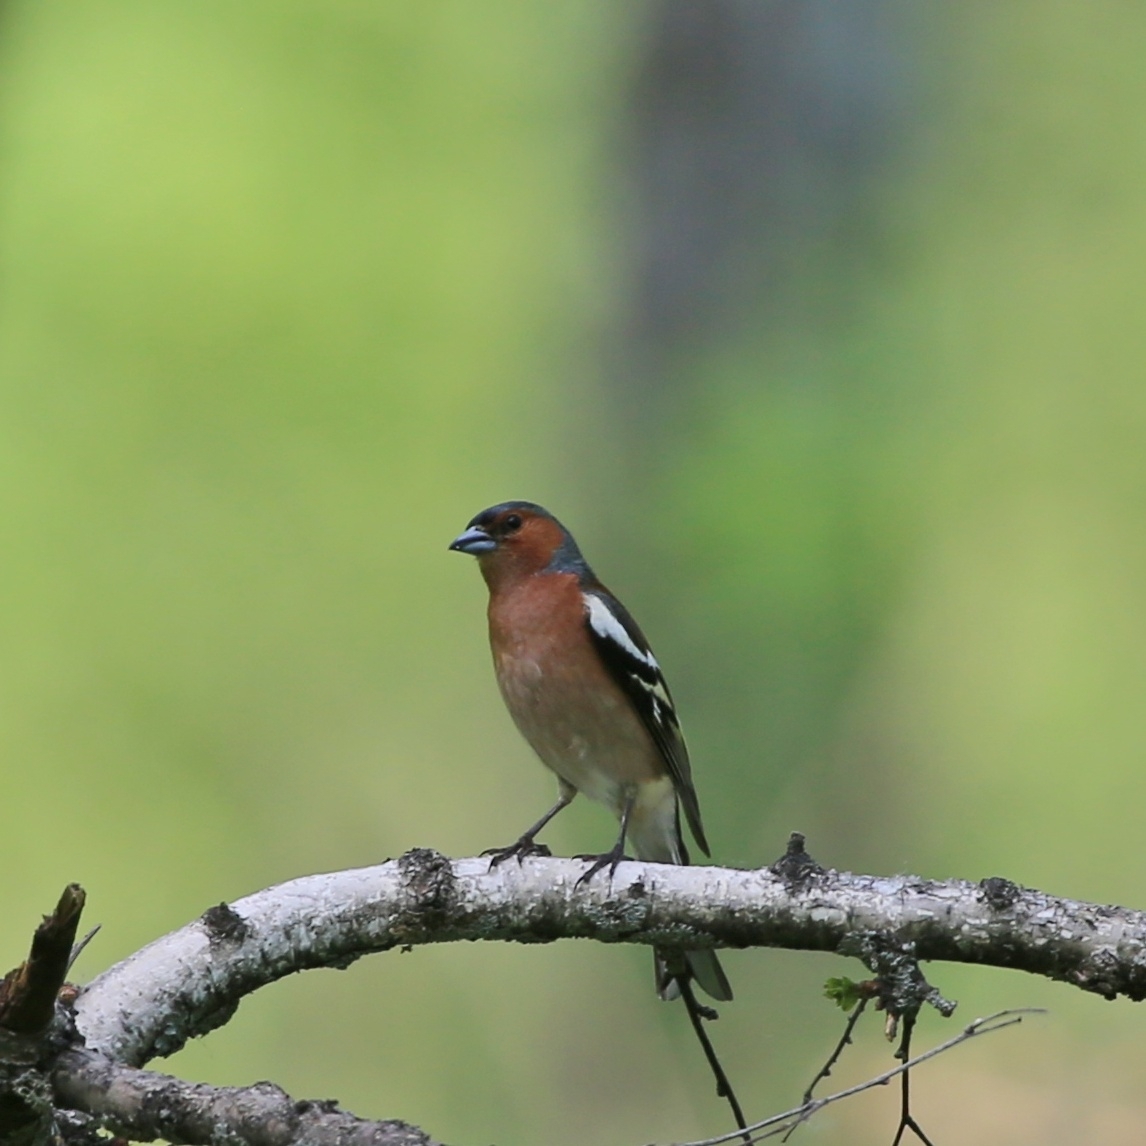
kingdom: Animalia
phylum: Chordata
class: Aves
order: Passeriformes
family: Fringillidae
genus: Fringilla
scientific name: Fringilla coelebs
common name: Common chaffinch
